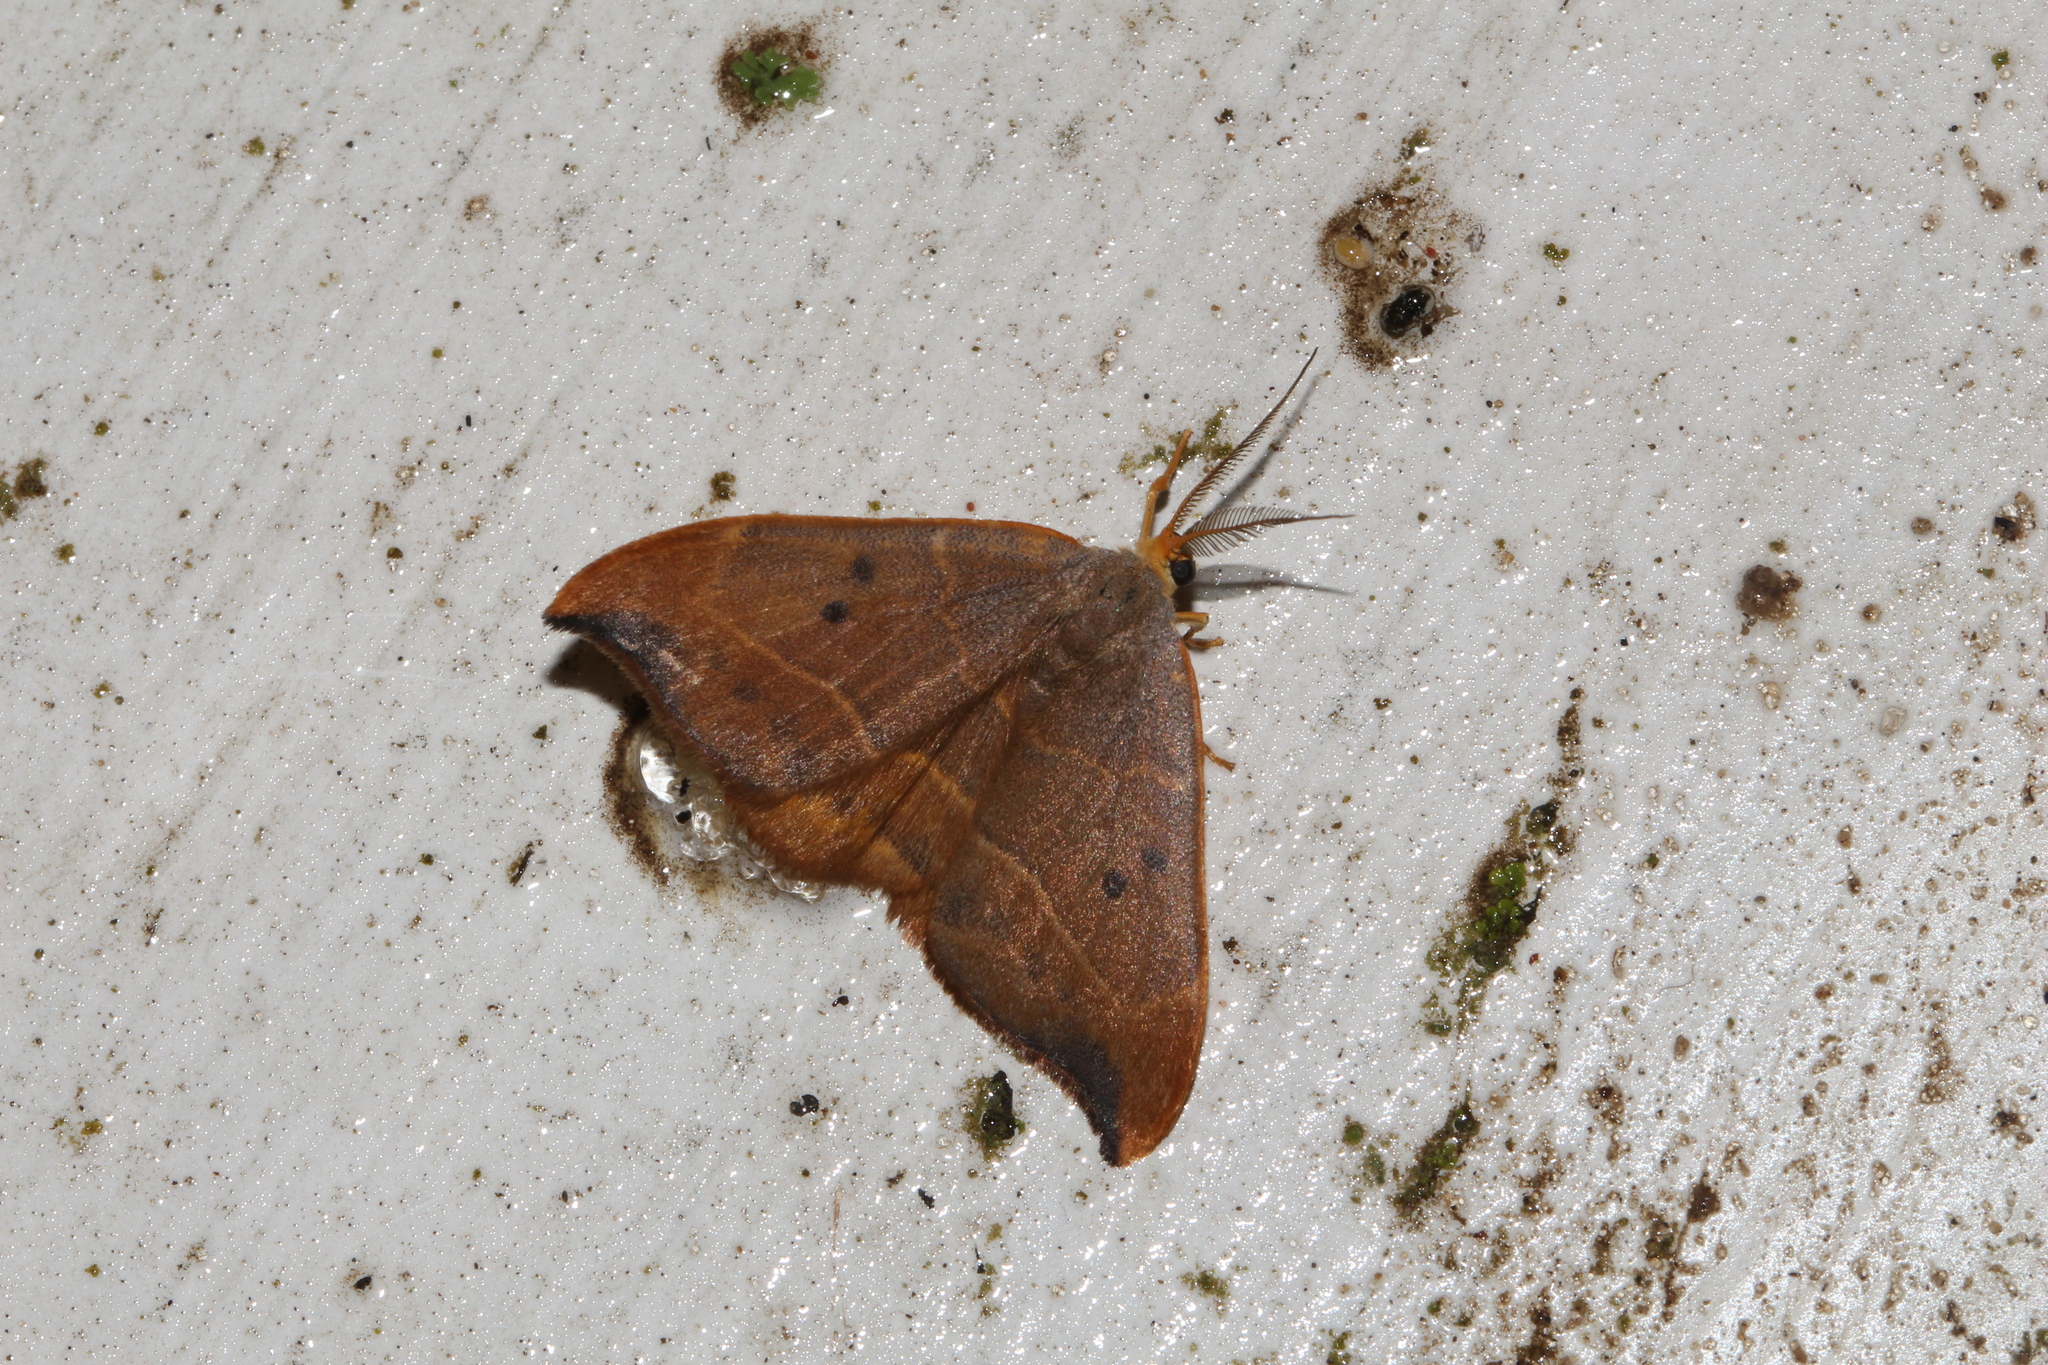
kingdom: Animalia
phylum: Arthropoda
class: Insecta
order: Lepidoptera
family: Drepanidae
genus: Watsonalla
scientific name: Watsonalla binaria
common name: Oak hook-tip
